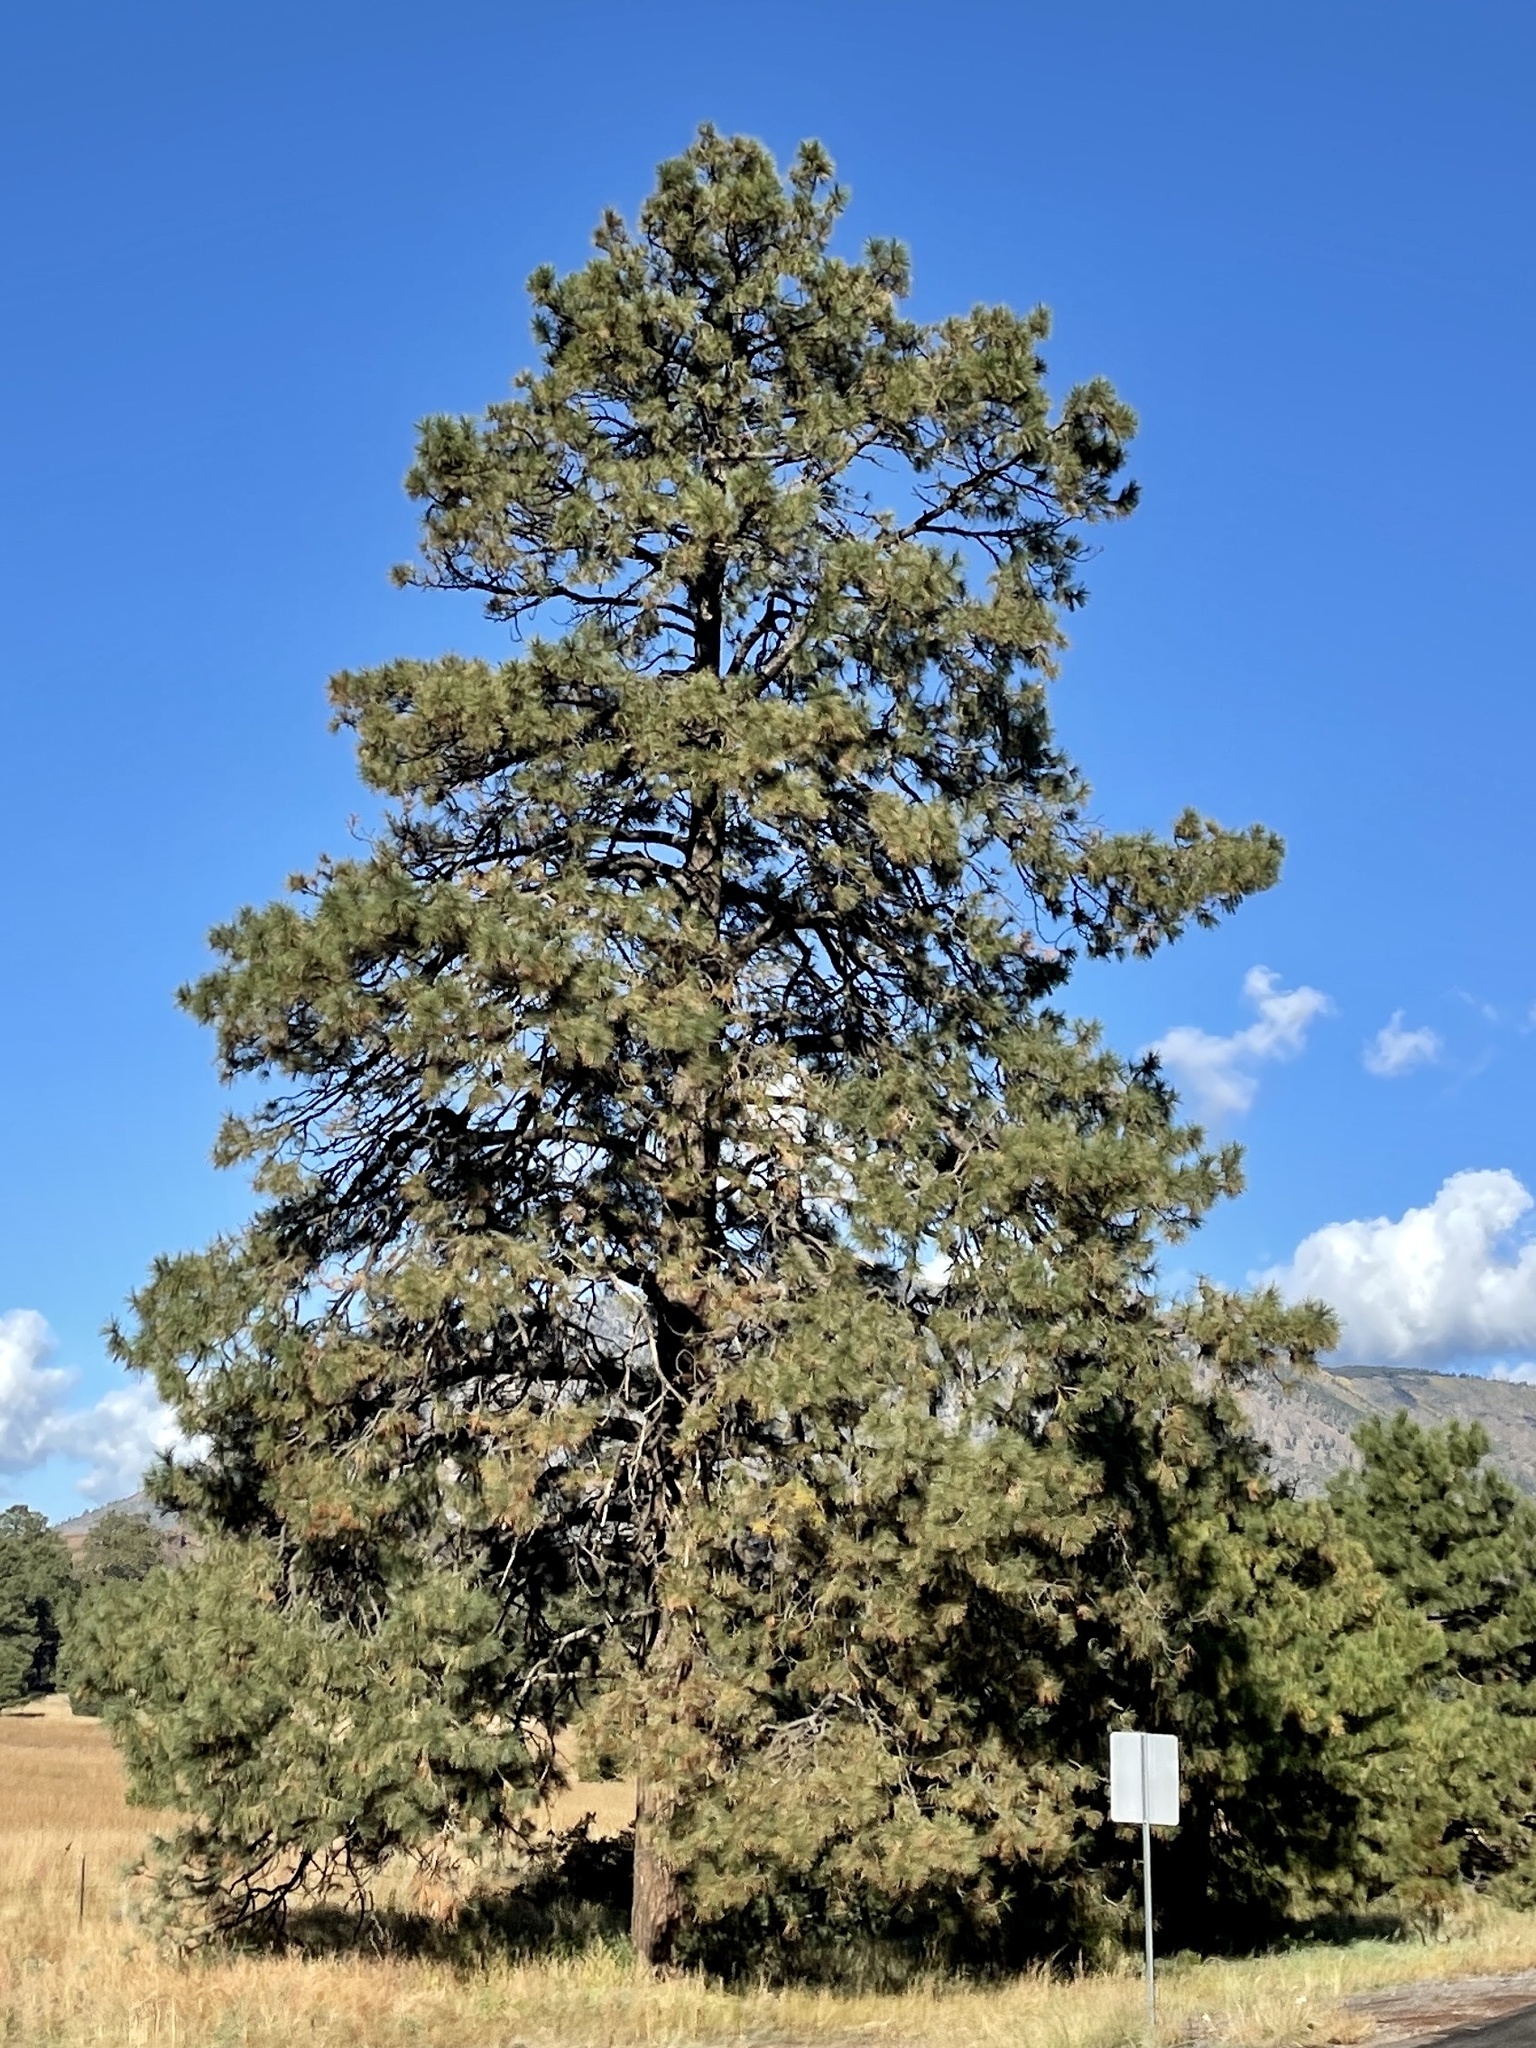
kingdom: Plantae
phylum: Tracheophyta
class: Pinopsida
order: Pinales
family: Pinaceae
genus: Pinus
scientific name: Pinus ponderosa
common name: Western yellow-pine
